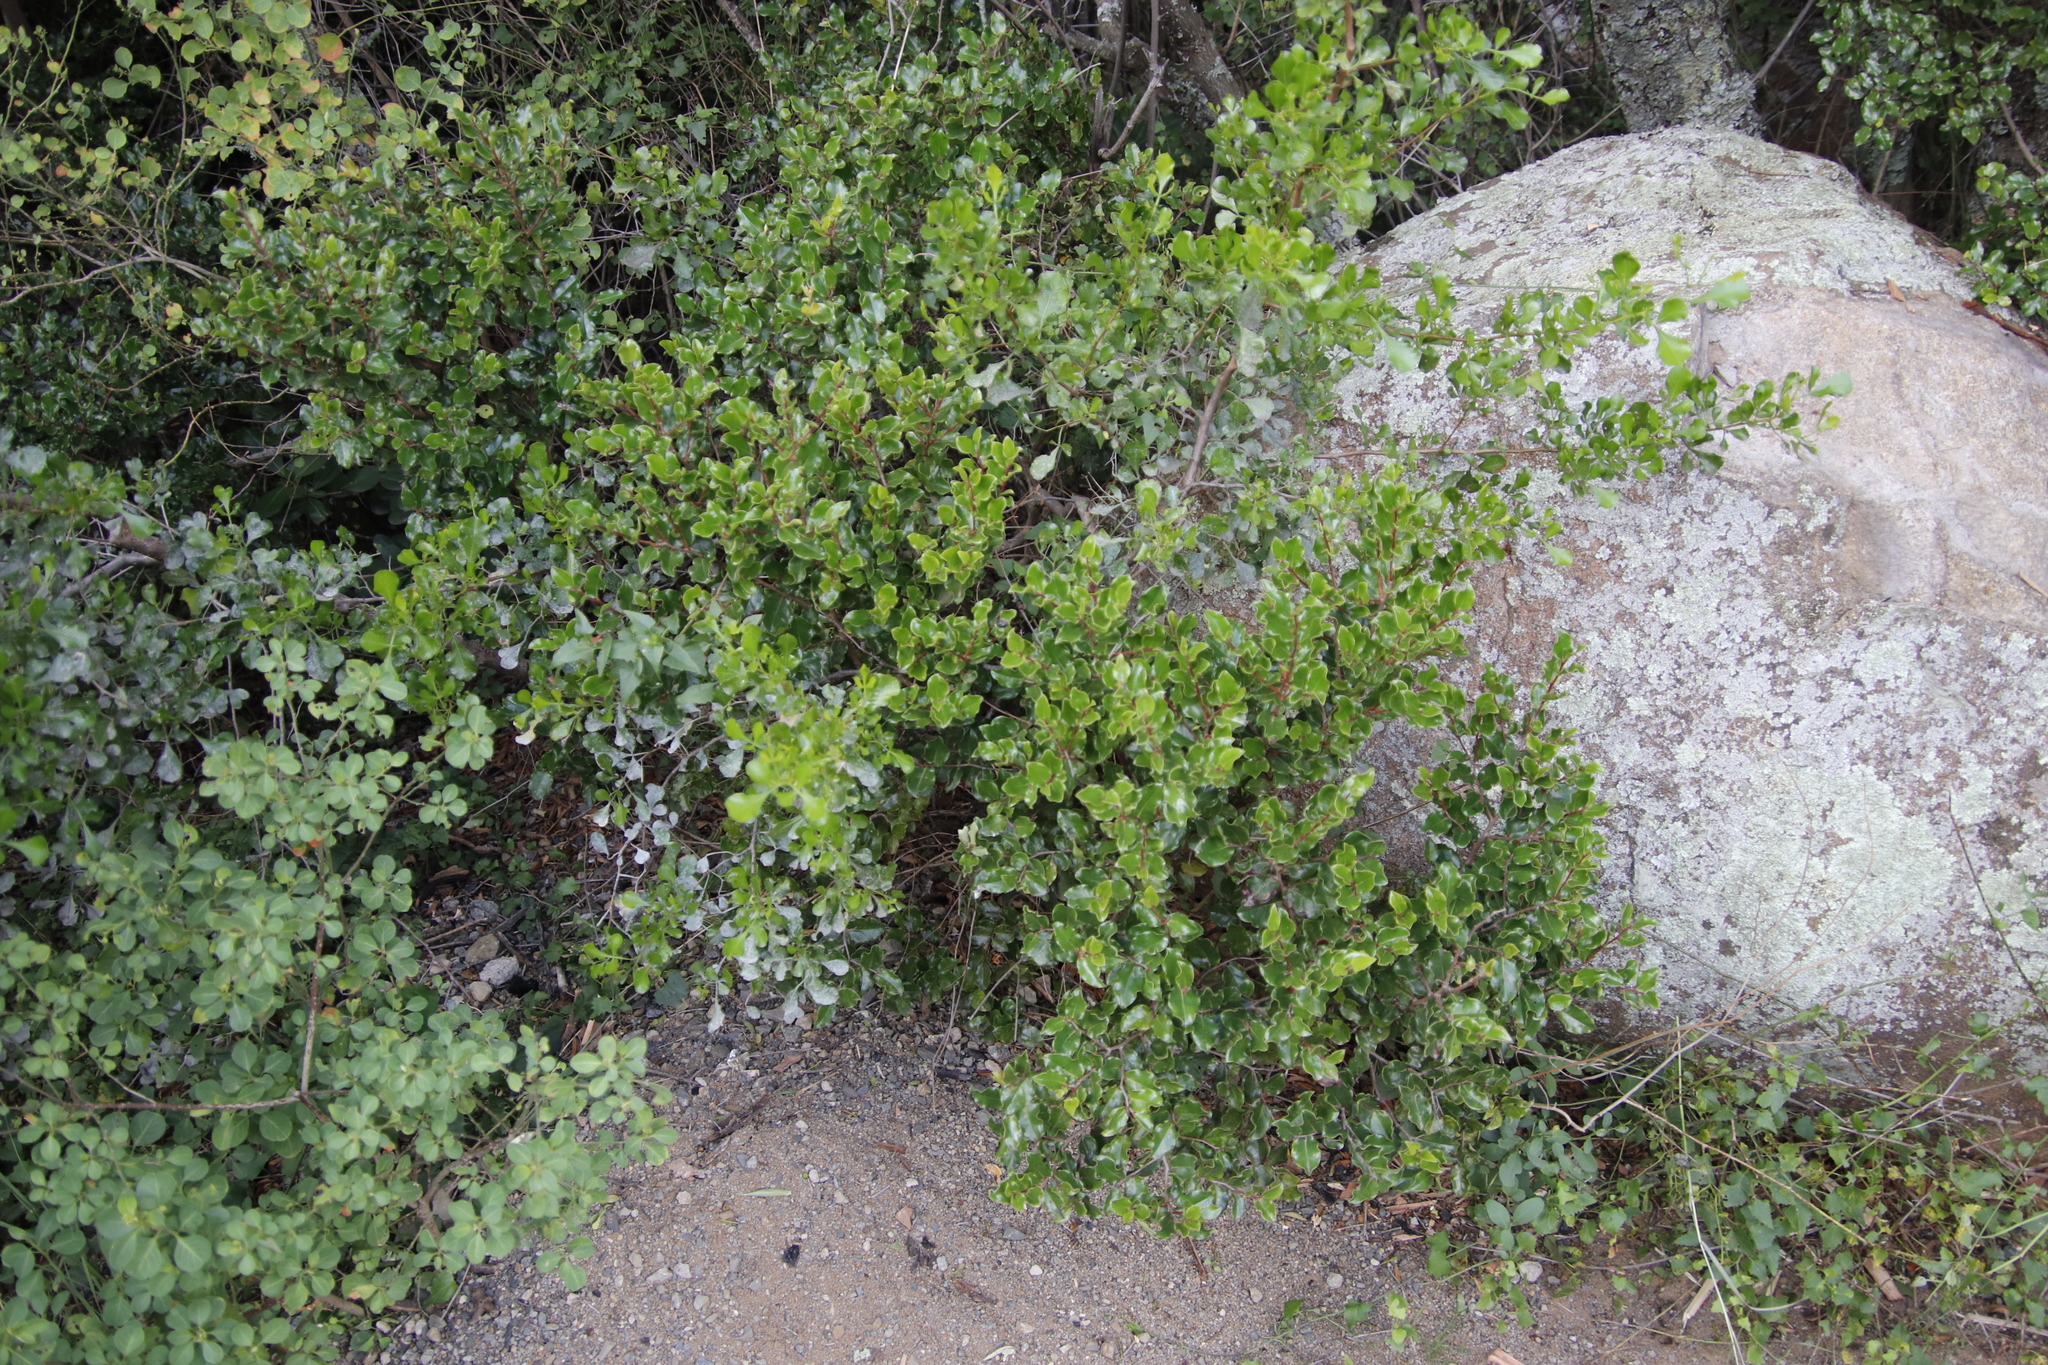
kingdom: Plantae
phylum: Tracheophyta
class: Magnoliopsida
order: Ericales
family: Ebenaceae
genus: Diospyros
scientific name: Diospyros whyteana
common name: Bladder-nut
